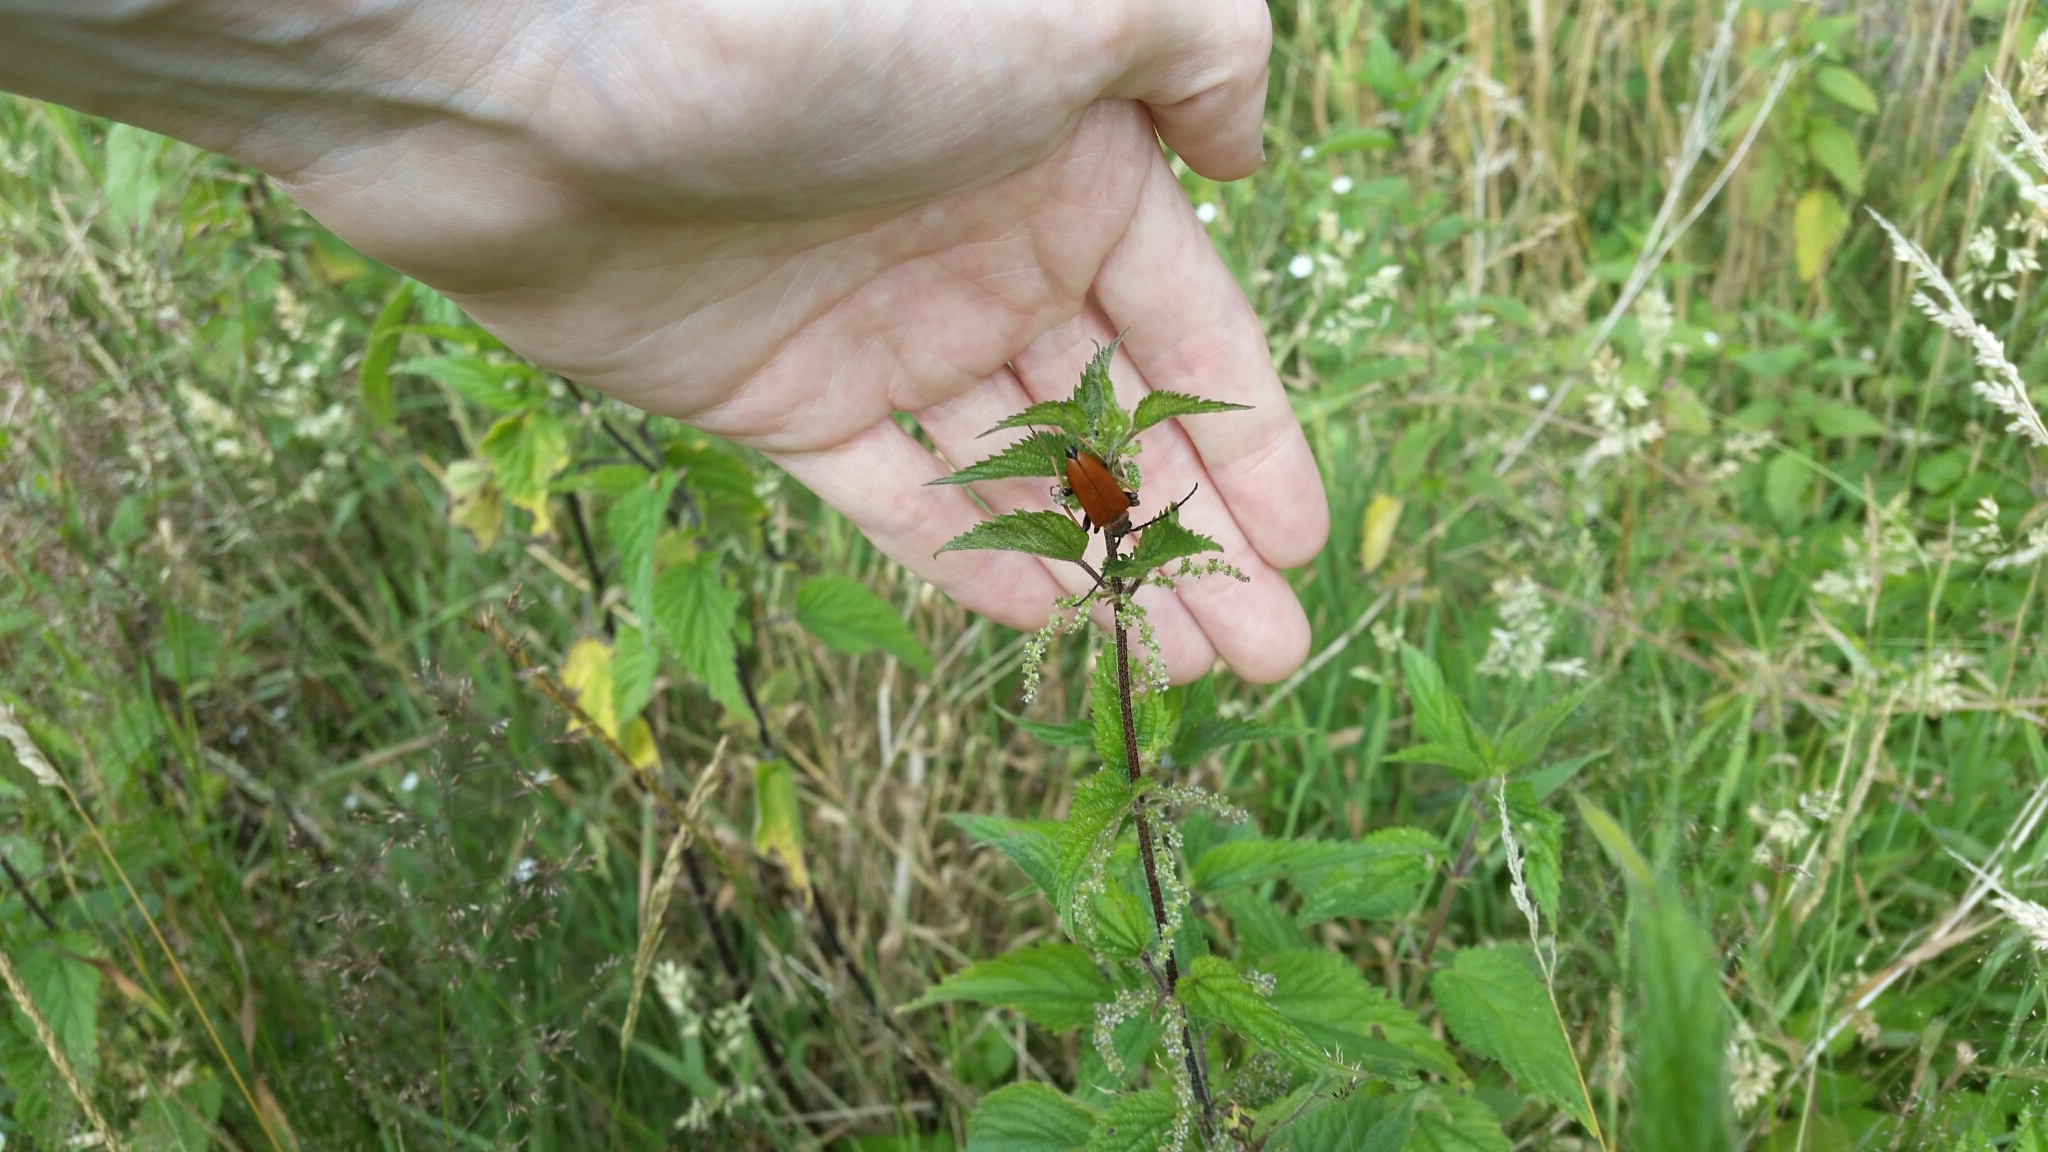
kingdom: Animalia
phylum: Arthropoda
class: Insecta
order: Coleoptera
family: Cerambycidae
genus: Stictoleptura
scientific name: Stictoleptura rubra
